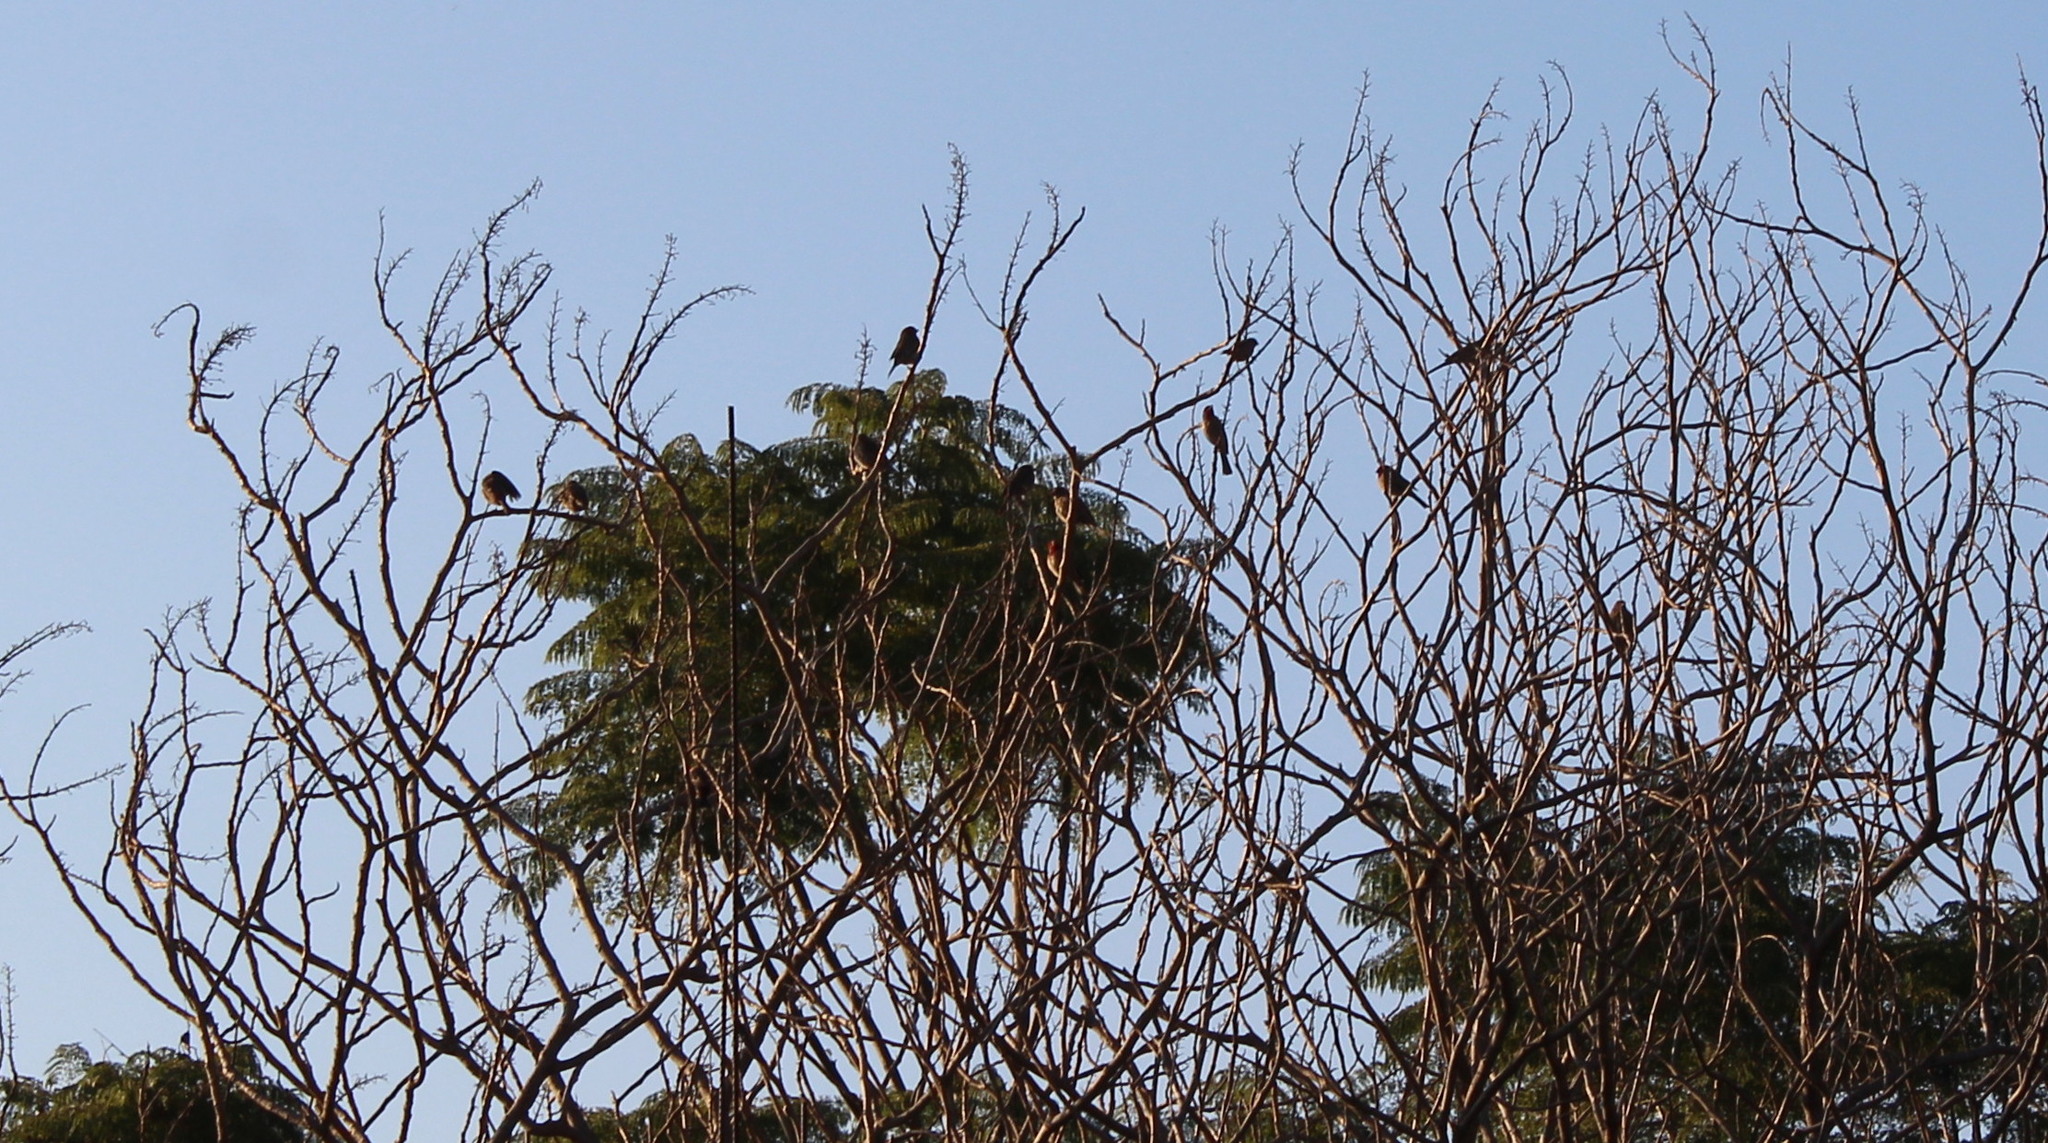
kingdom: Animalia
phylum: Chordata
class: Aves
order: Passeriformes
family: Fringillidae
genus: Haemorhous
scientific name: Haemorhous mexicanus
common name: House finch
